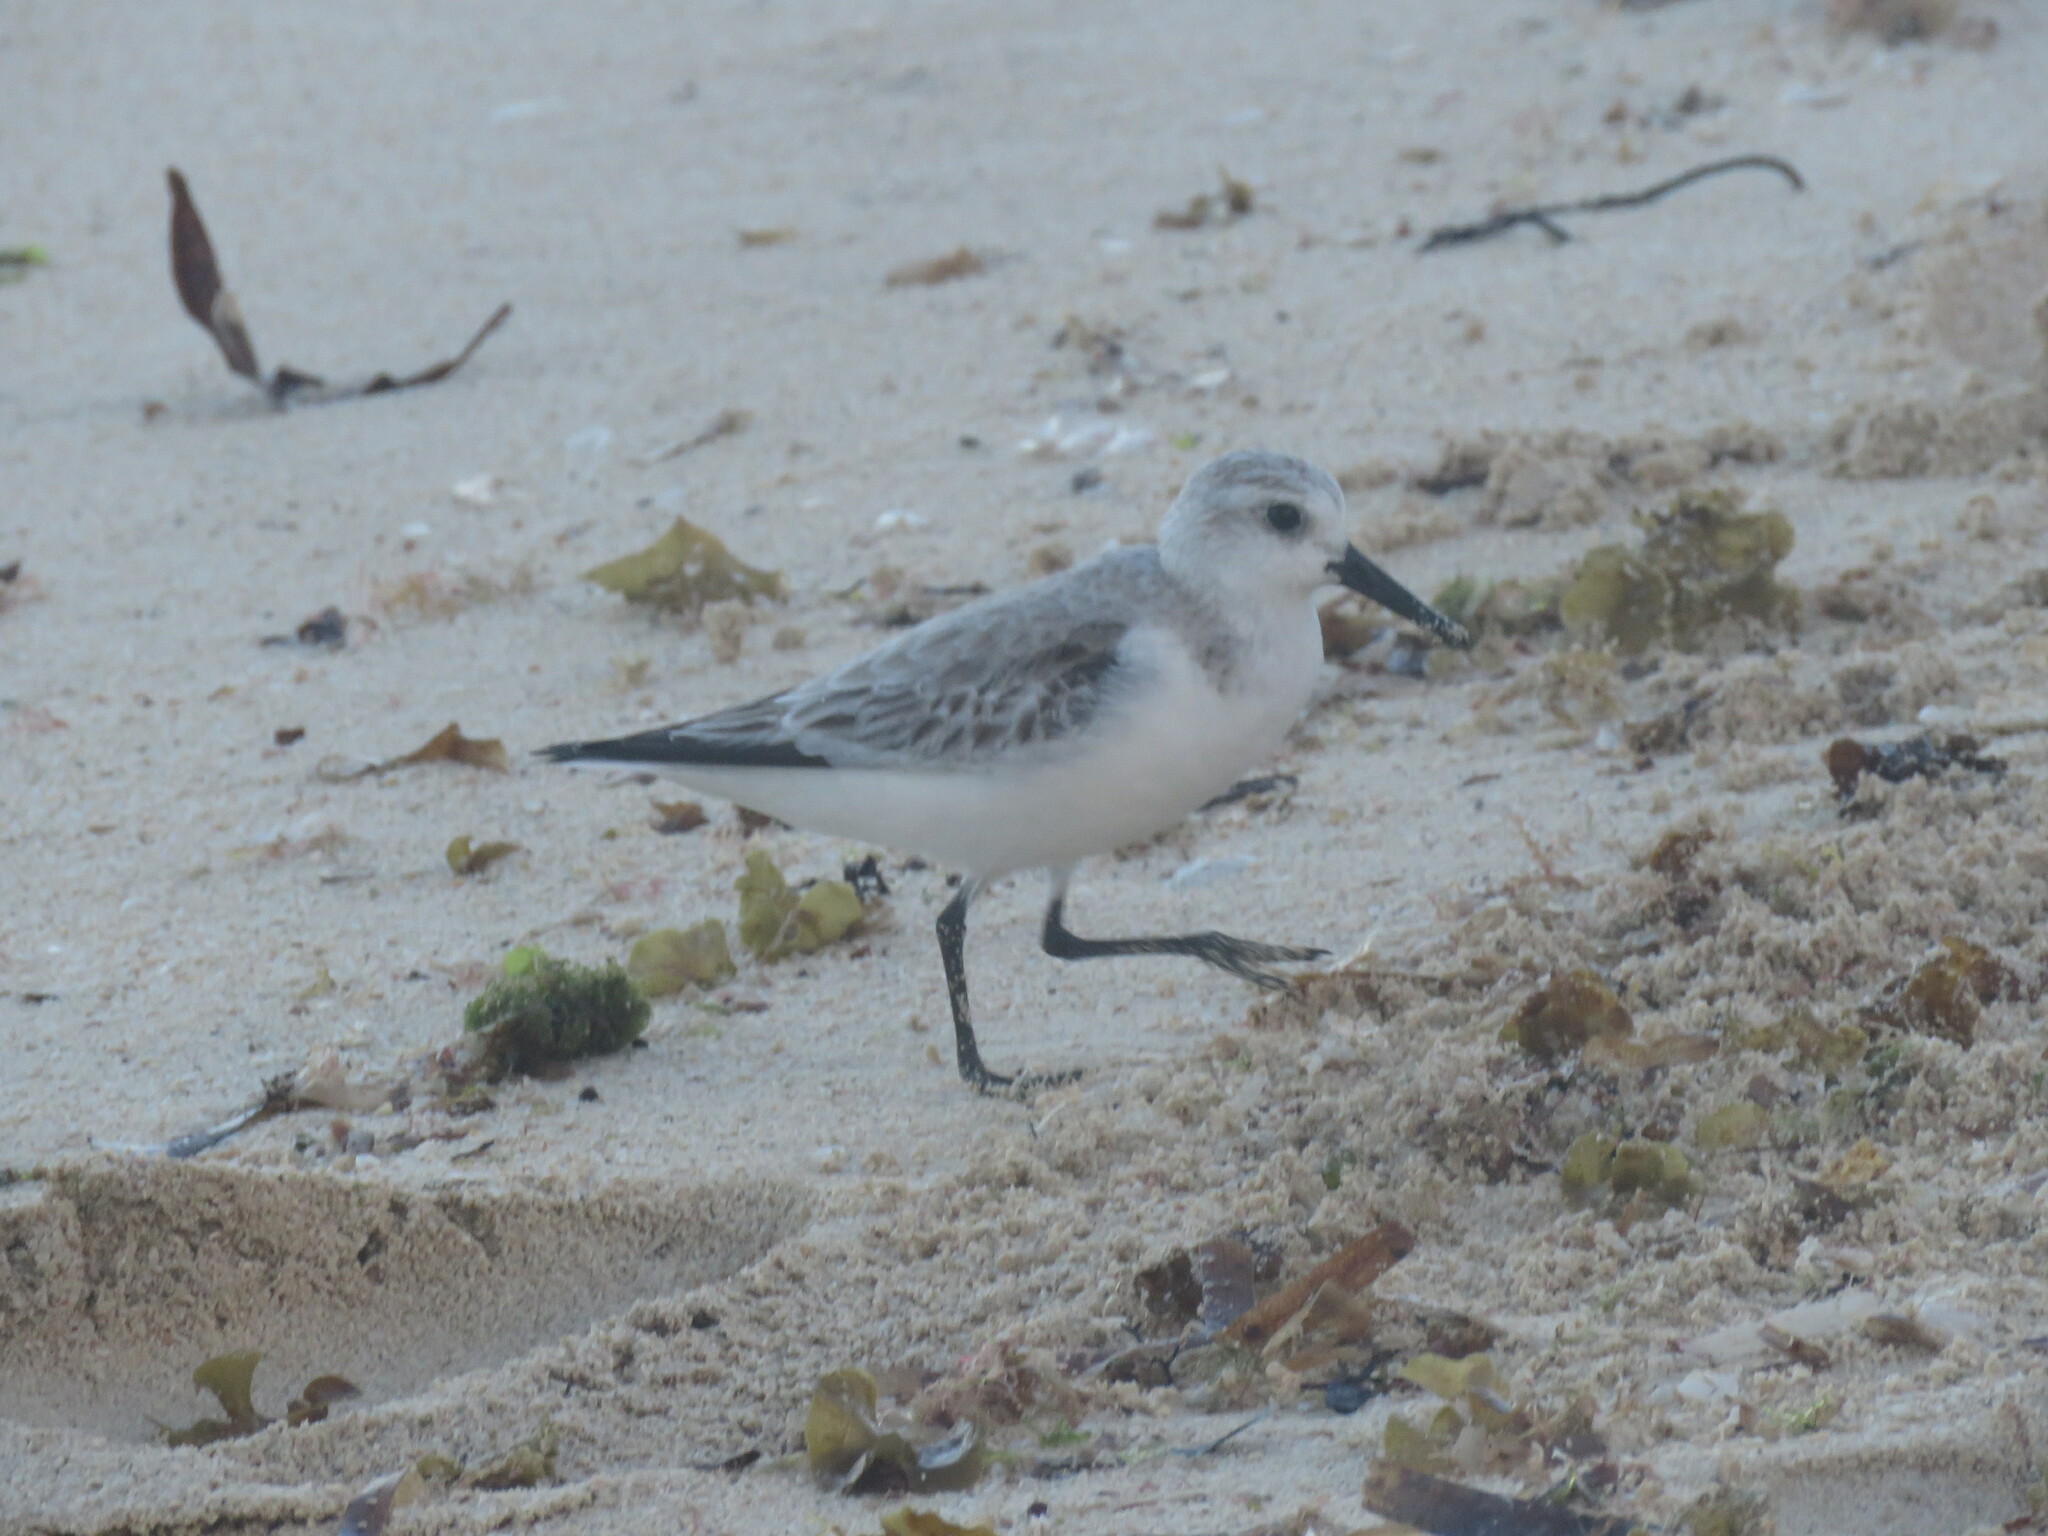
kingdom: Animalia
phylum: Chordata
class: Aves
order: Charadriiformes
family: Scolopacidae
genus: Calidris
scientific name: Calidris alba
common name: Sanderling
